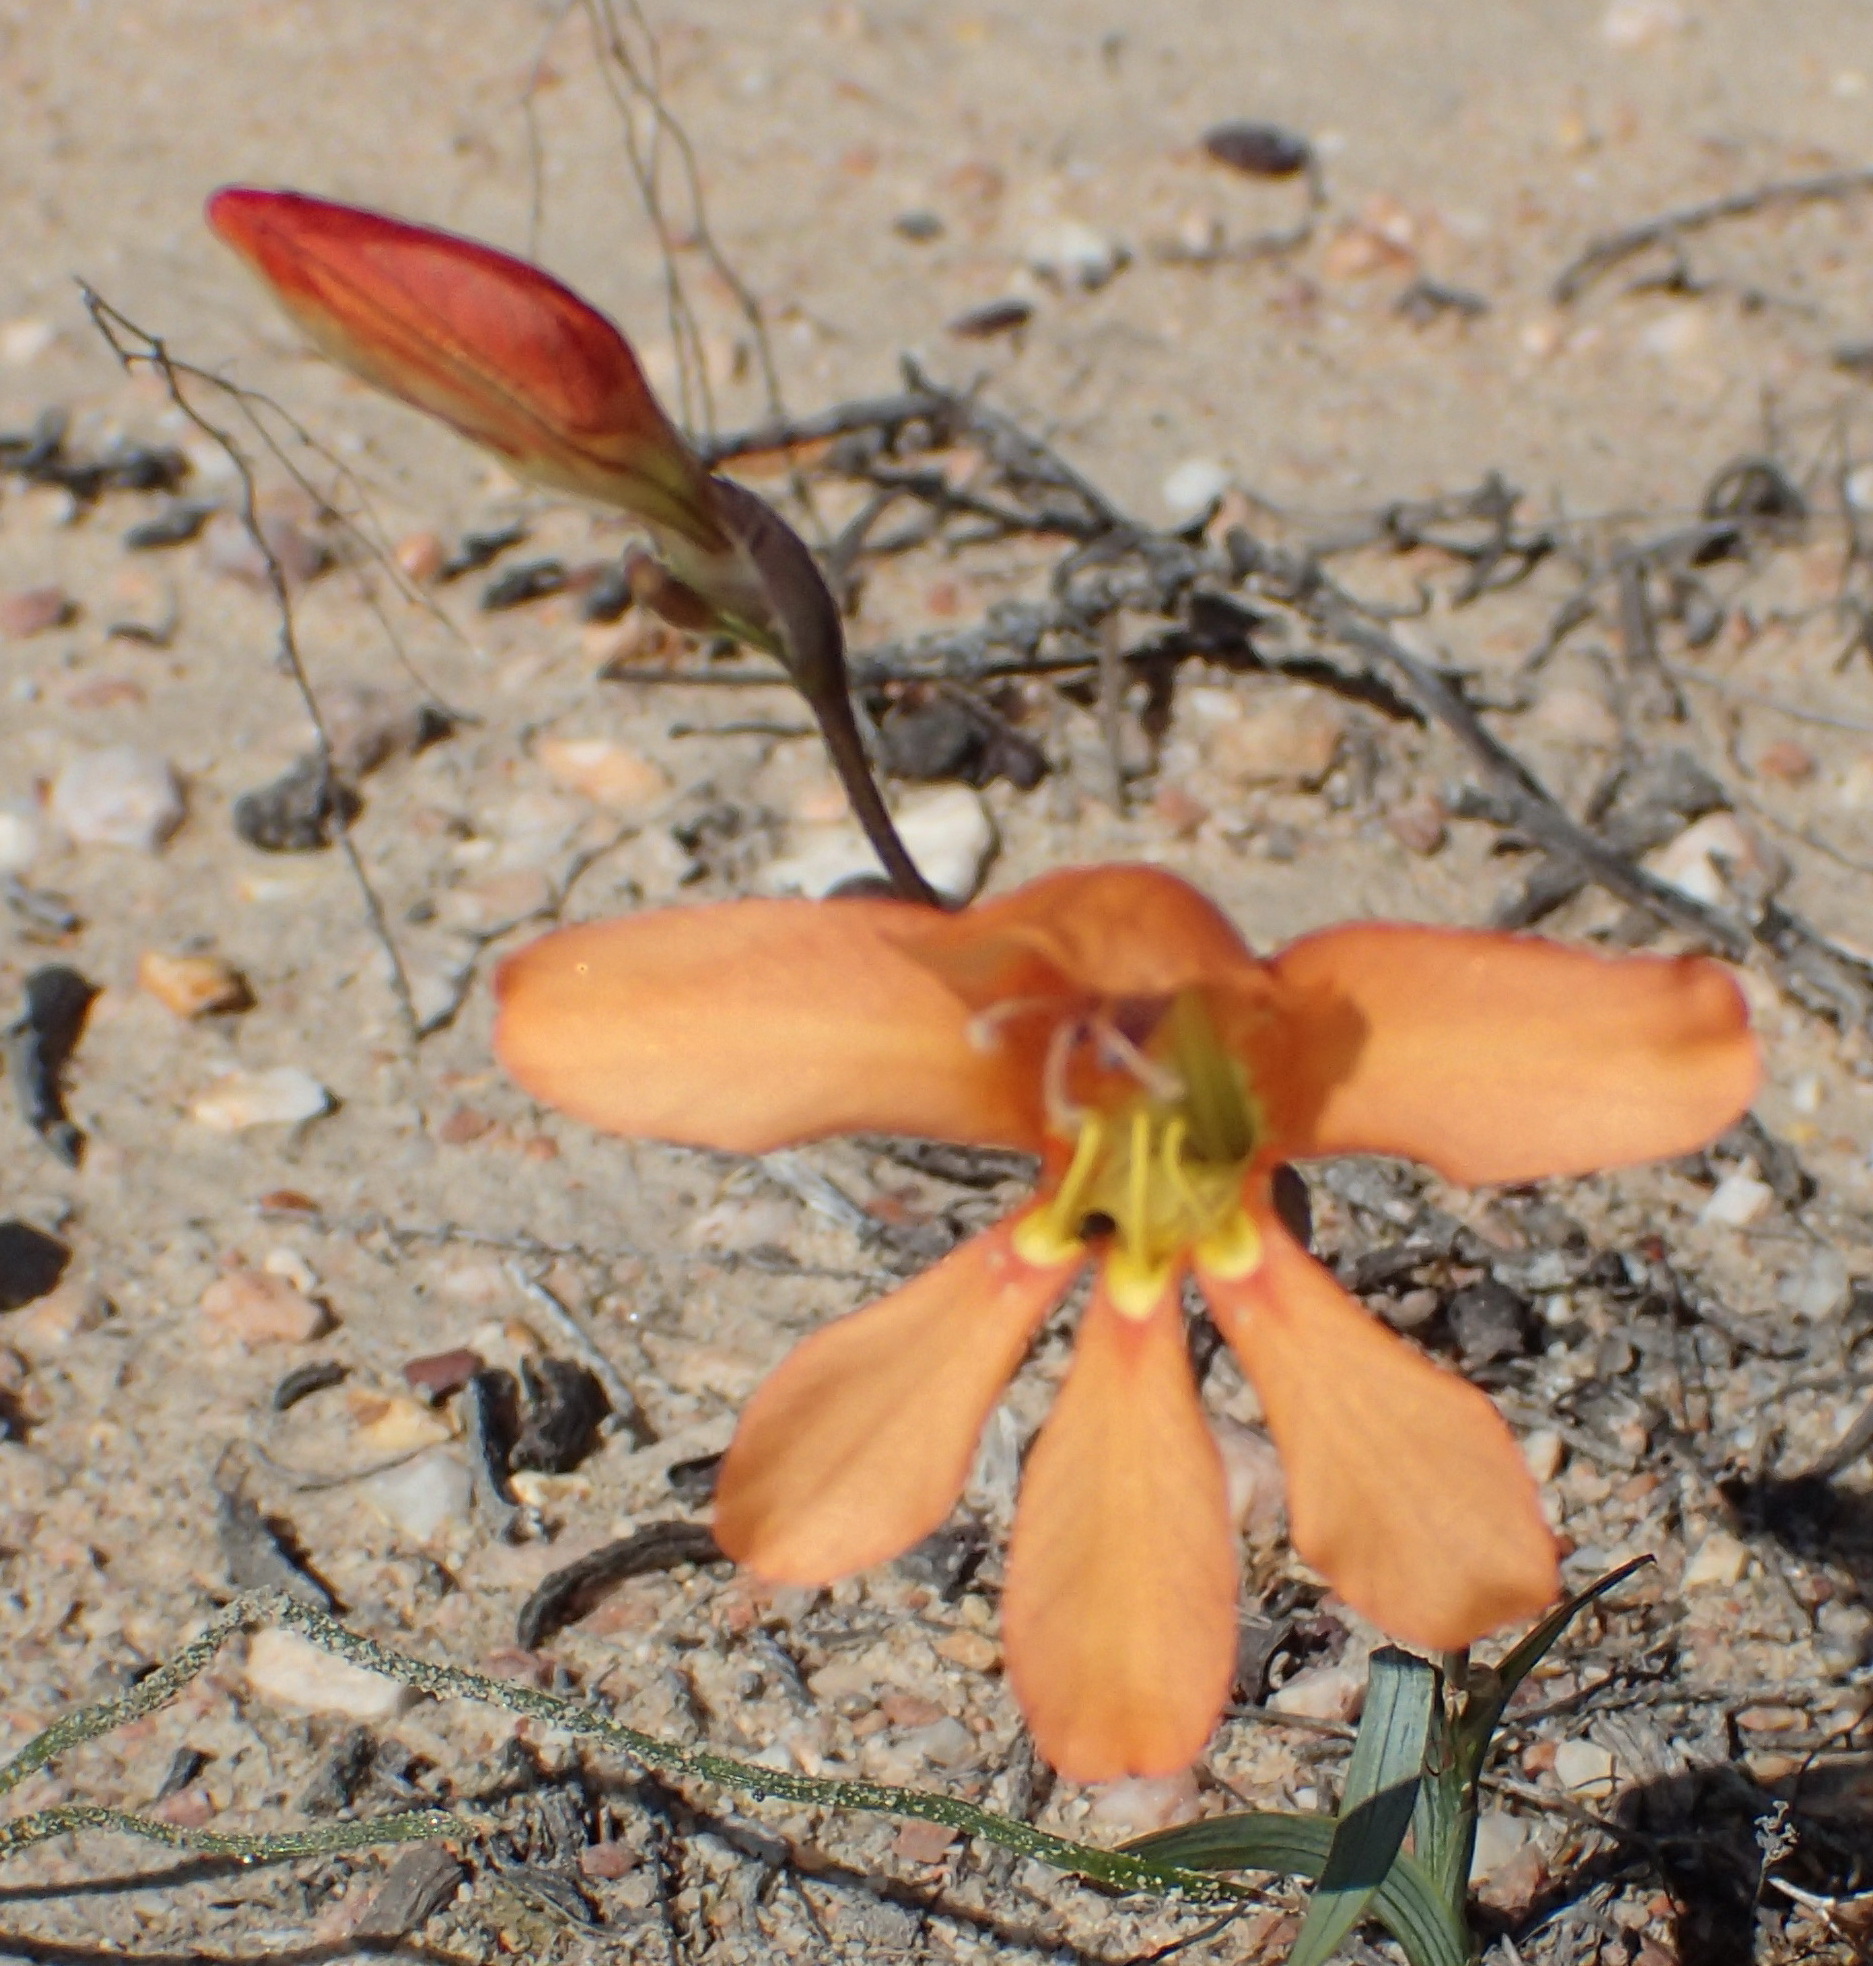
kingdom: Plantae
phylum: Tracheophyta
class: Liliopsida
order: Asparagales
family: Iridaceae
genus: Tritonia
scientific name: Tritonia securigera
